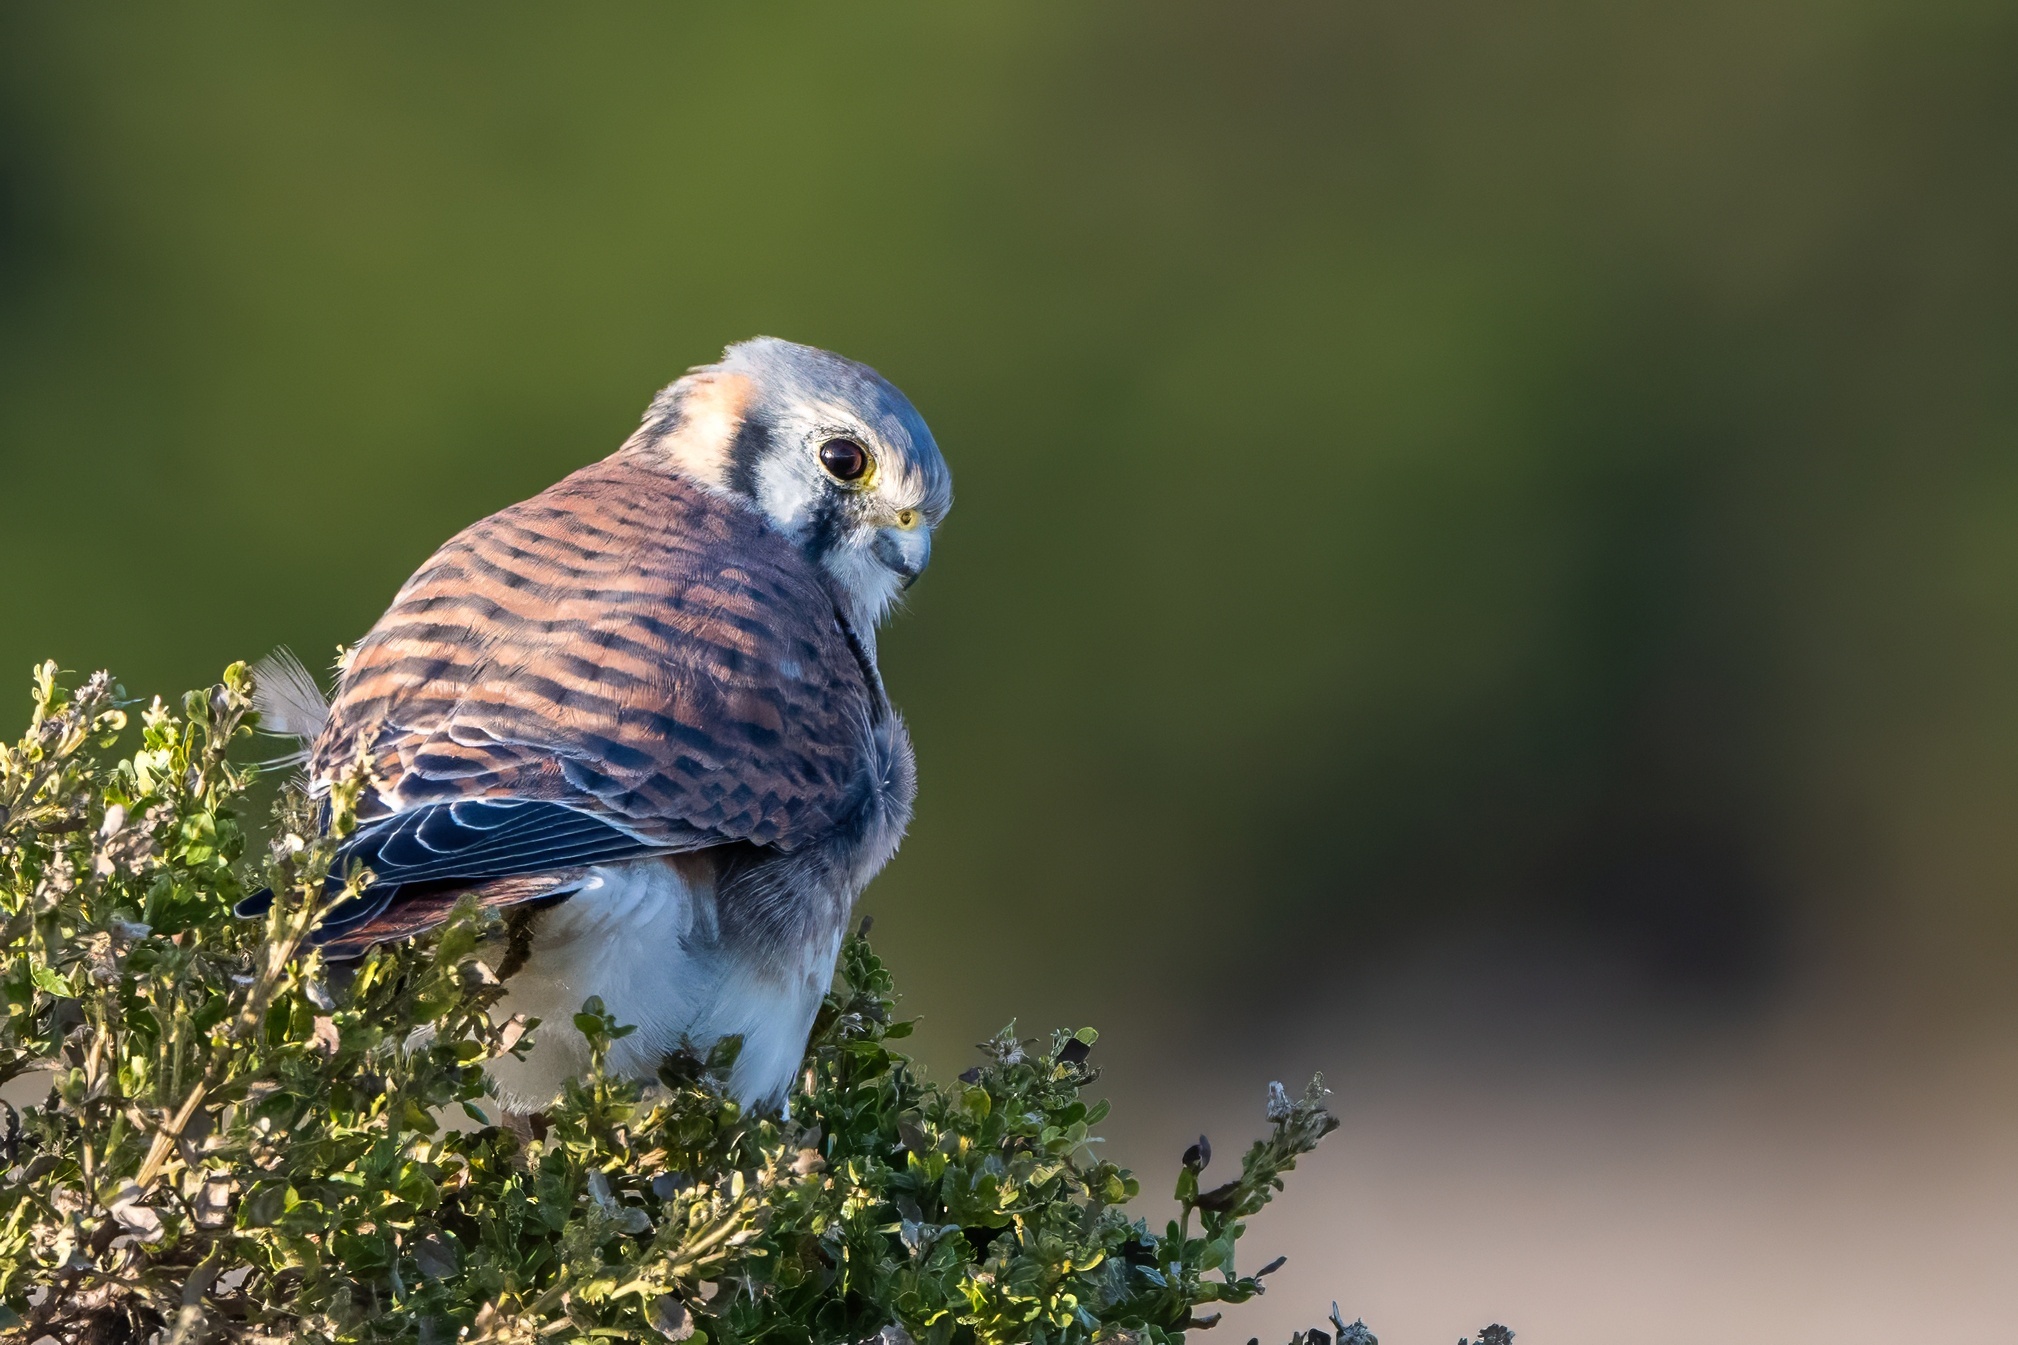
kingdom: Animalia
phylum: Chordata
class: Aves
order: Falconiformes
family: Falconidae
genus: Falco
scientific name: Falco sparverius
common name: American kestrel
